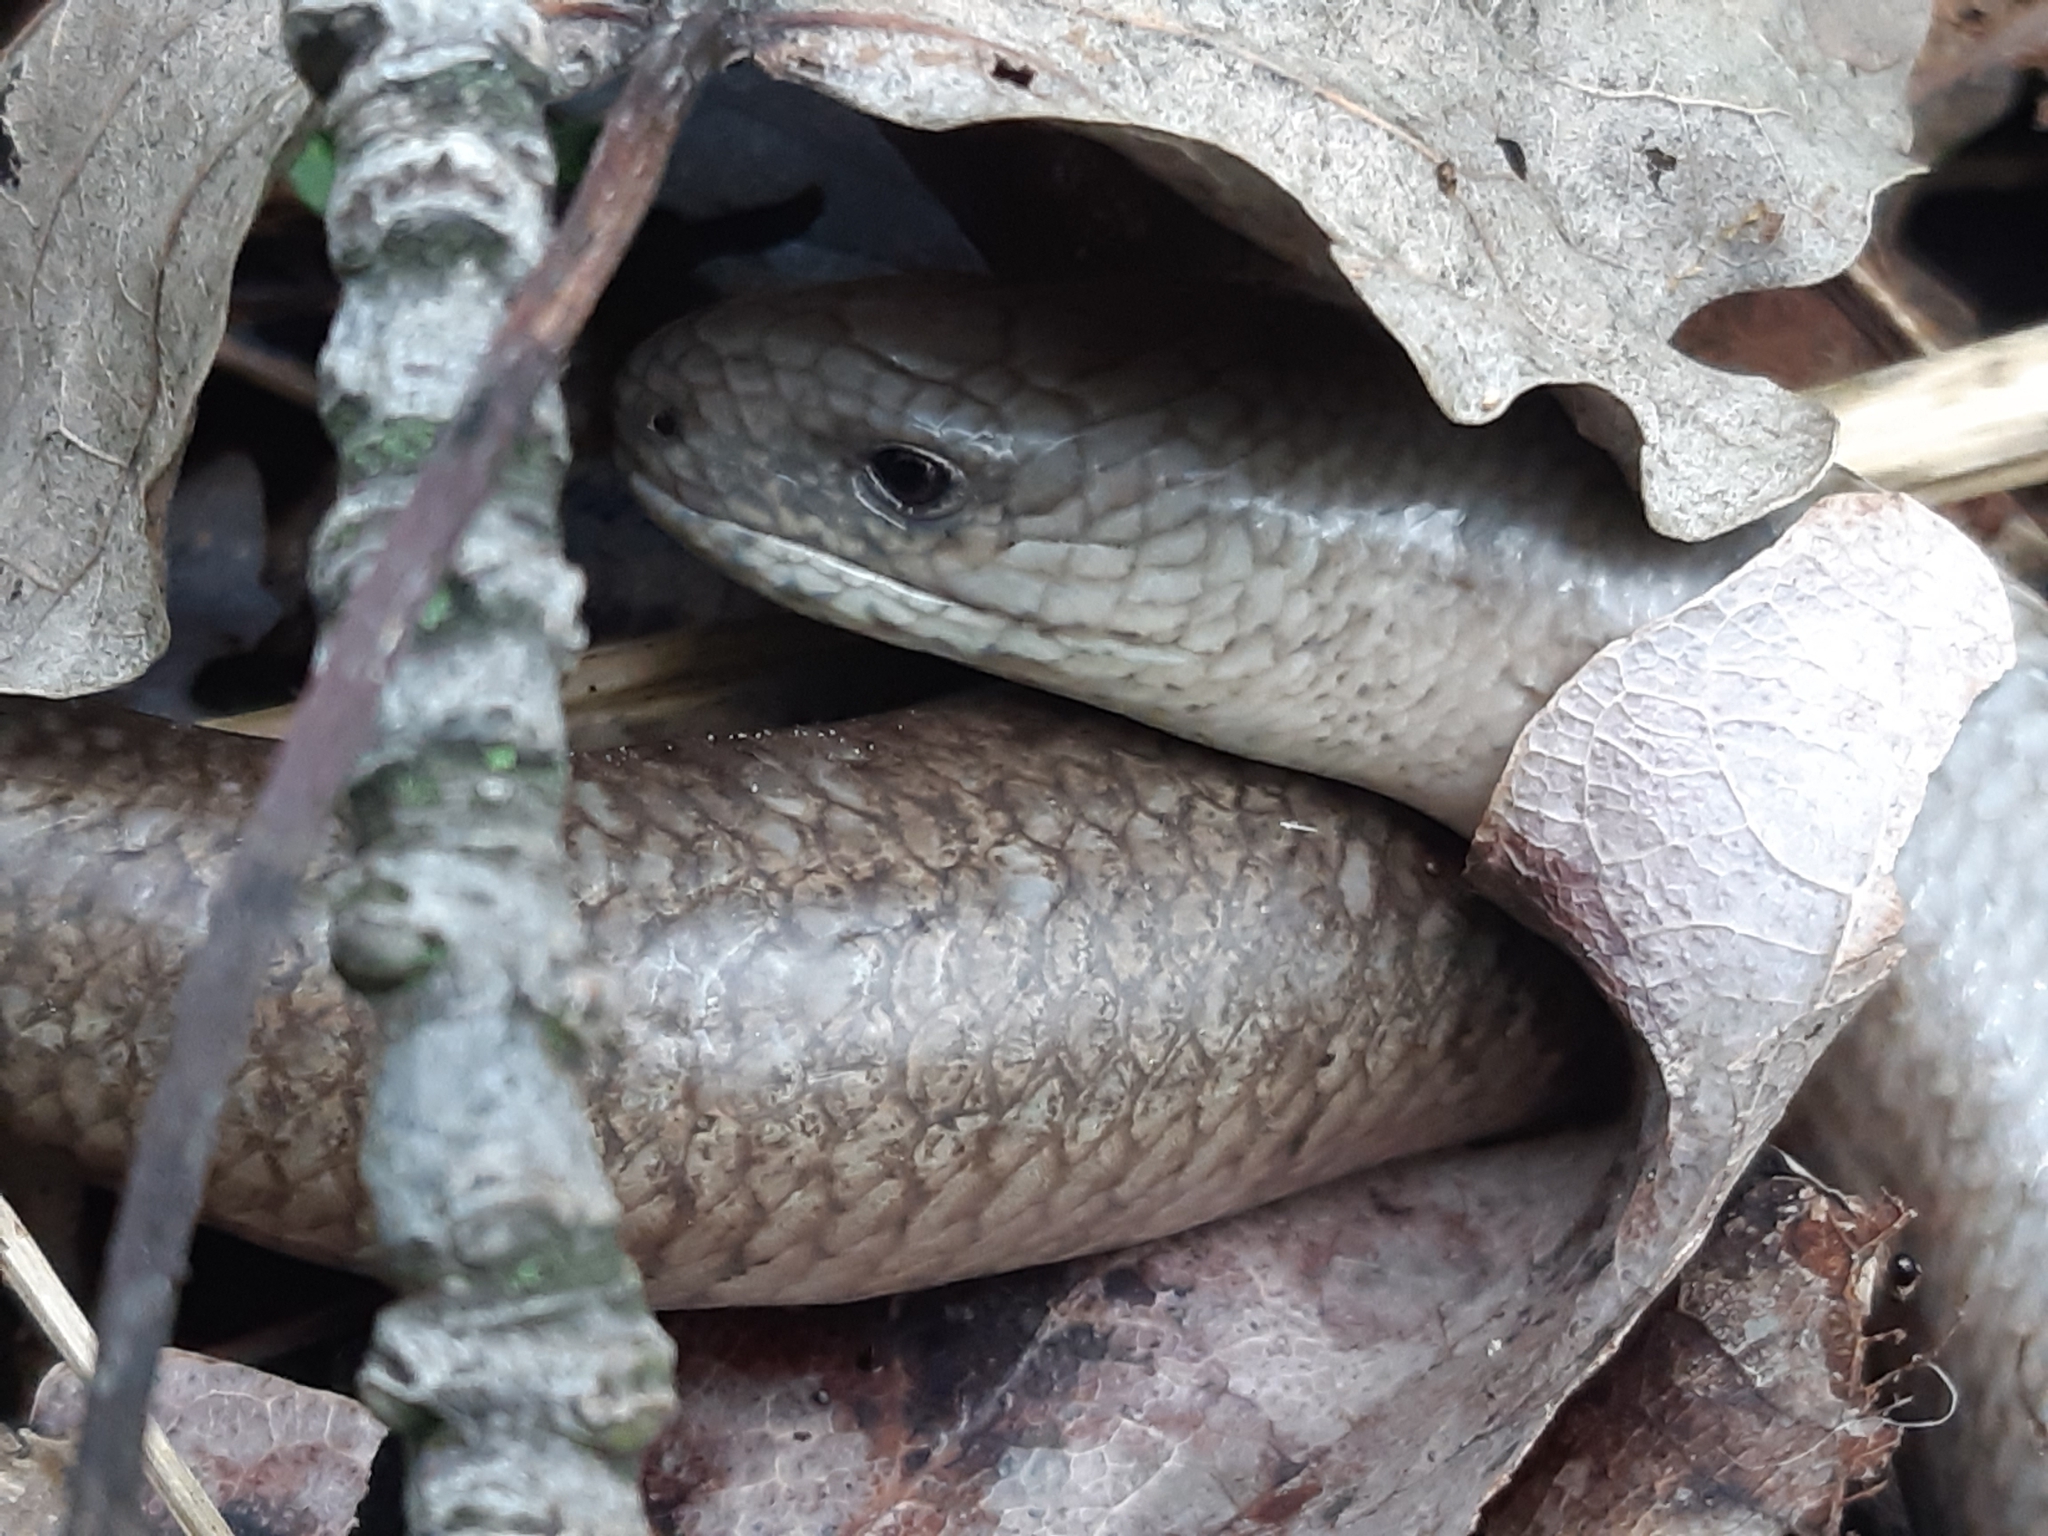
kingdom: Animalia
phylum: Chordata
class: Squamata
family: Anguidae
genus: Anguis
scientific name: Anguis fragilis
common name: Slow worm
